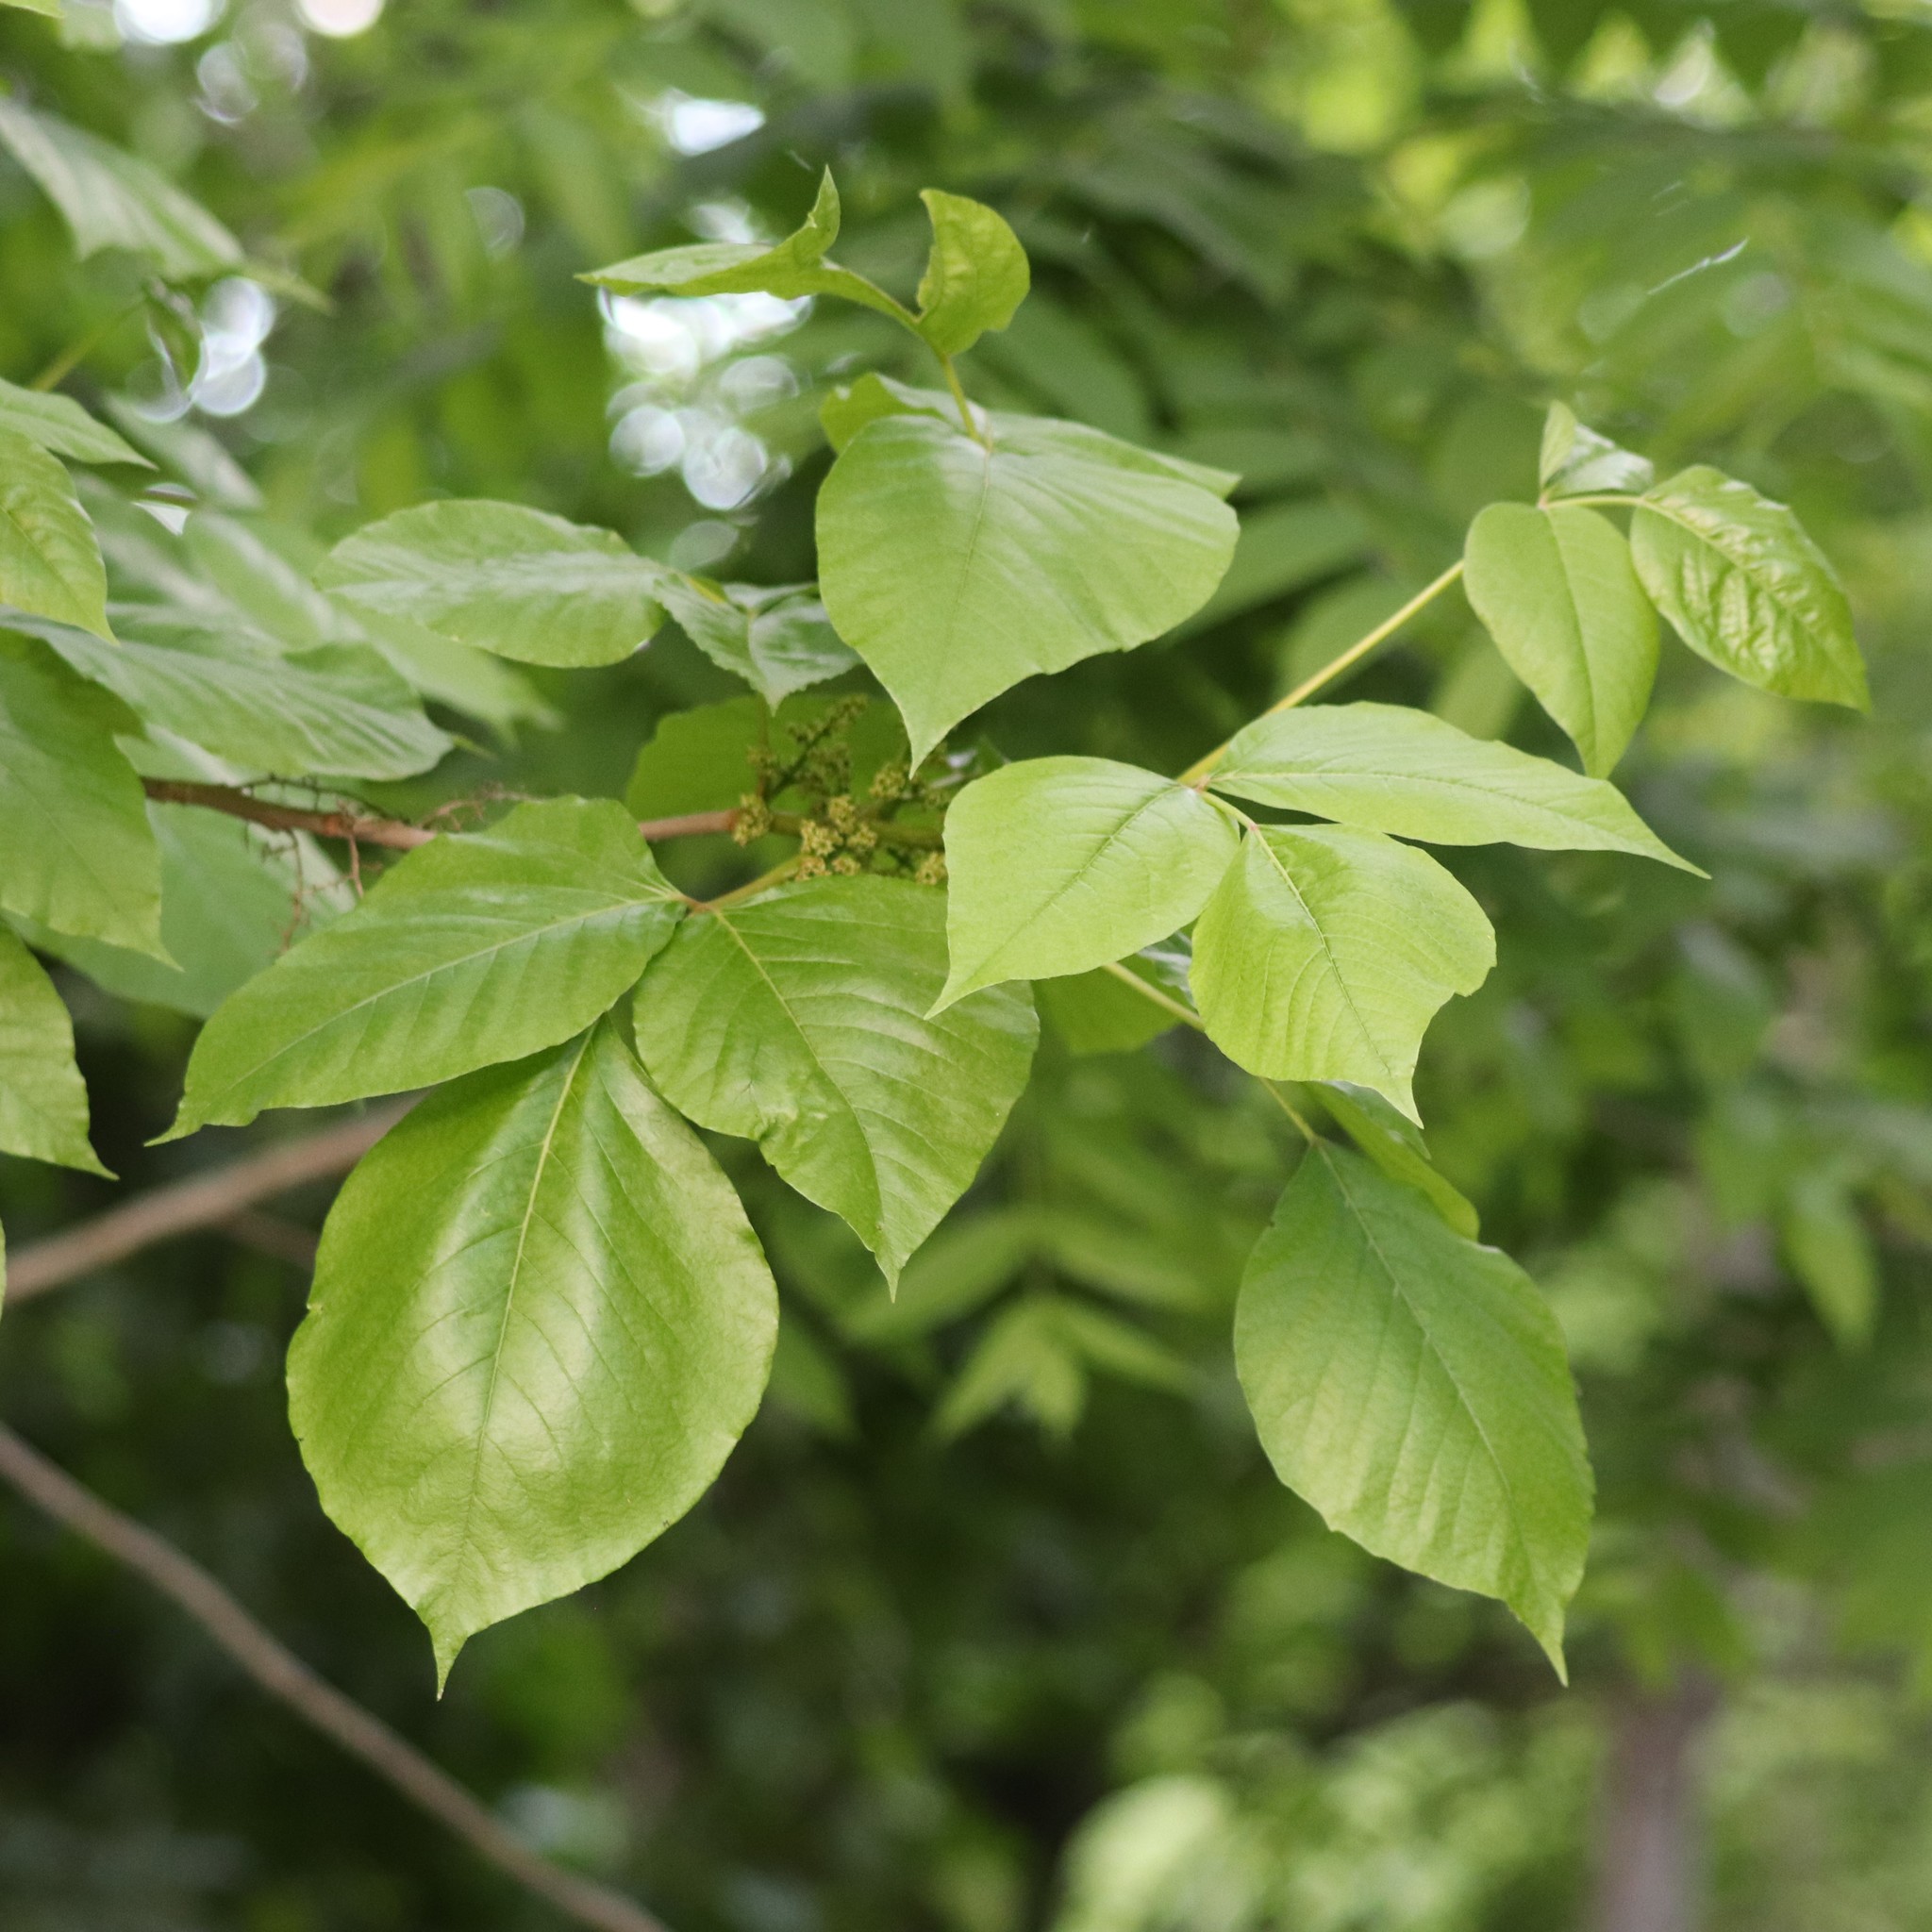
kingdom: Plantae
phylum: Tracheophyta
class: Magnoliopsida
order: Sapindales
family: Anacardiaceae
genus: Toxicodendron
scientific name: Toxicodendron radicans
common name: Poison ivy
